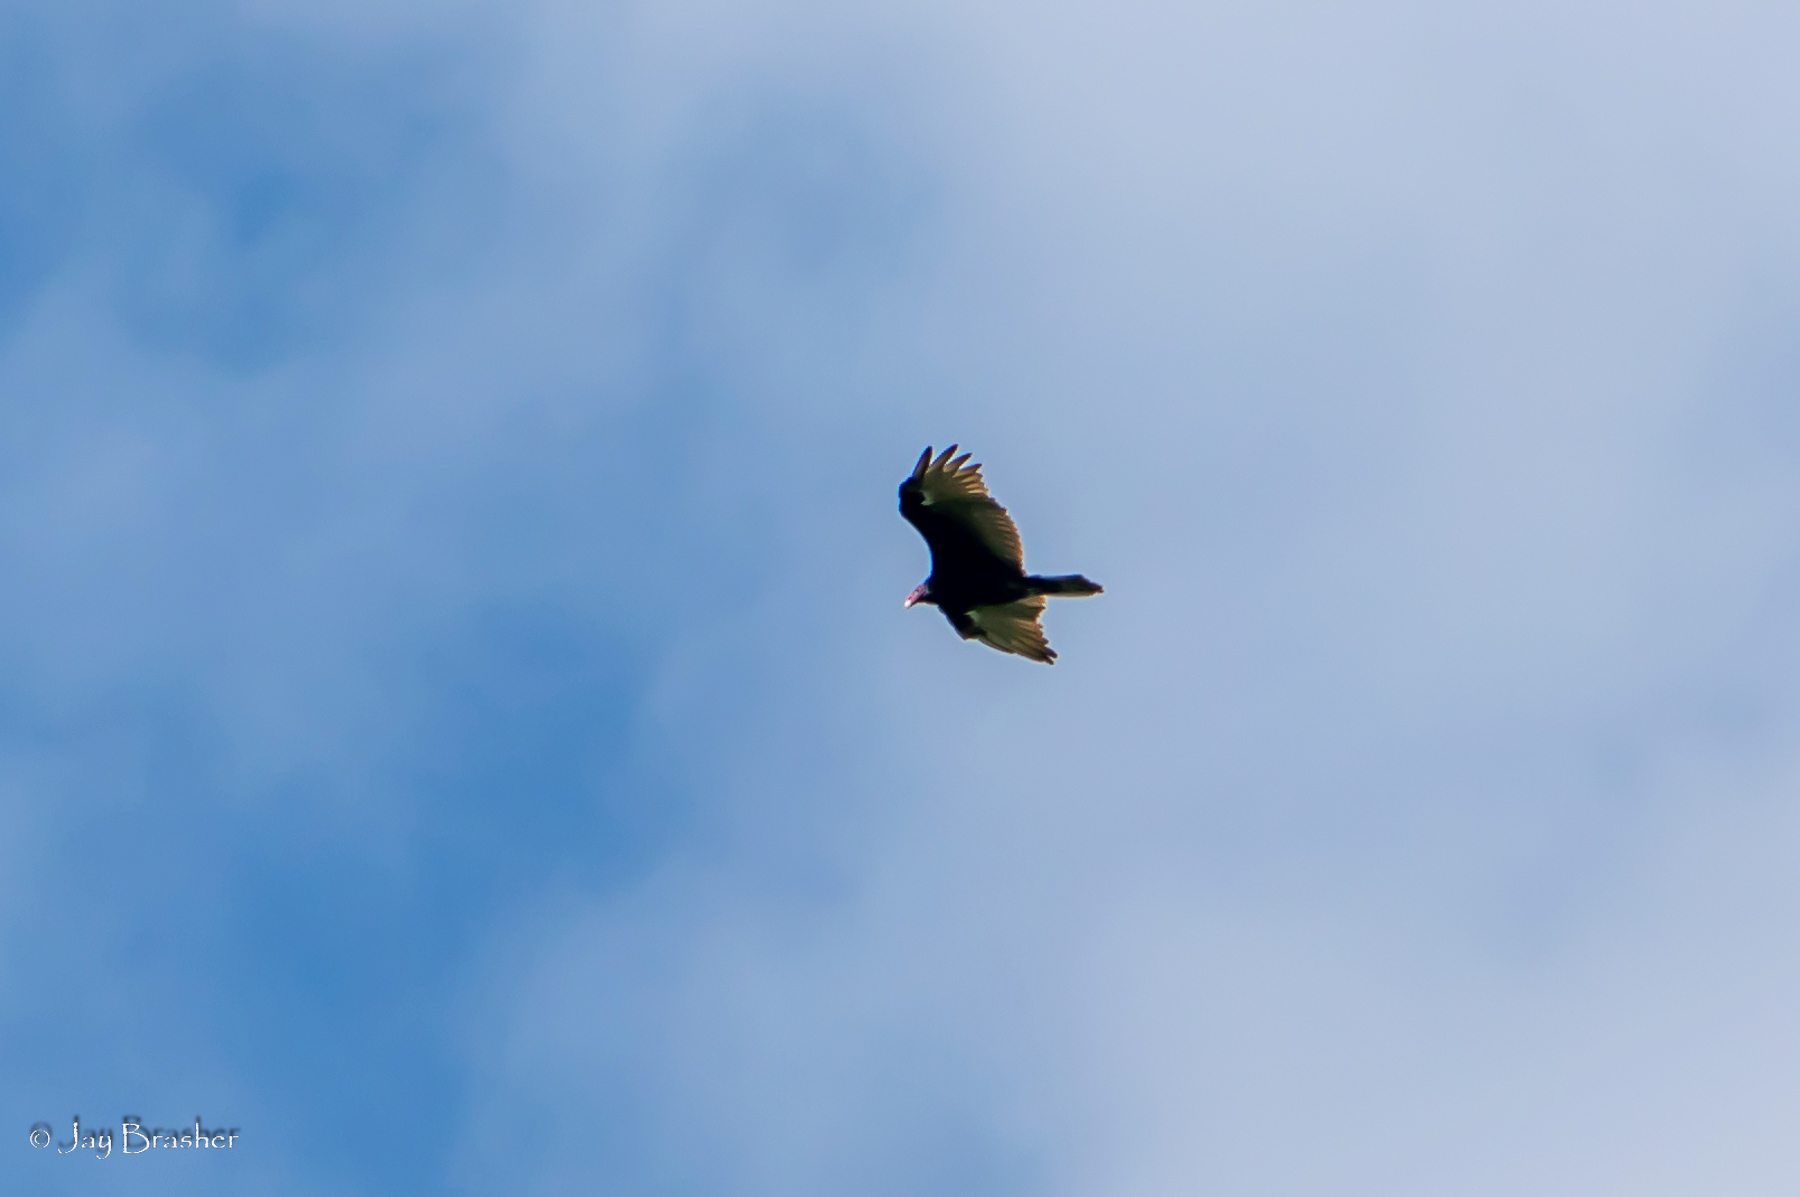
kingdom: Animalia
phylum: Chordata
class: Aves
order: Accipitriformes
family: Cathartidae
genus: Cathartes
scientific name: Cathartes aura
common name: Turkey vulture
